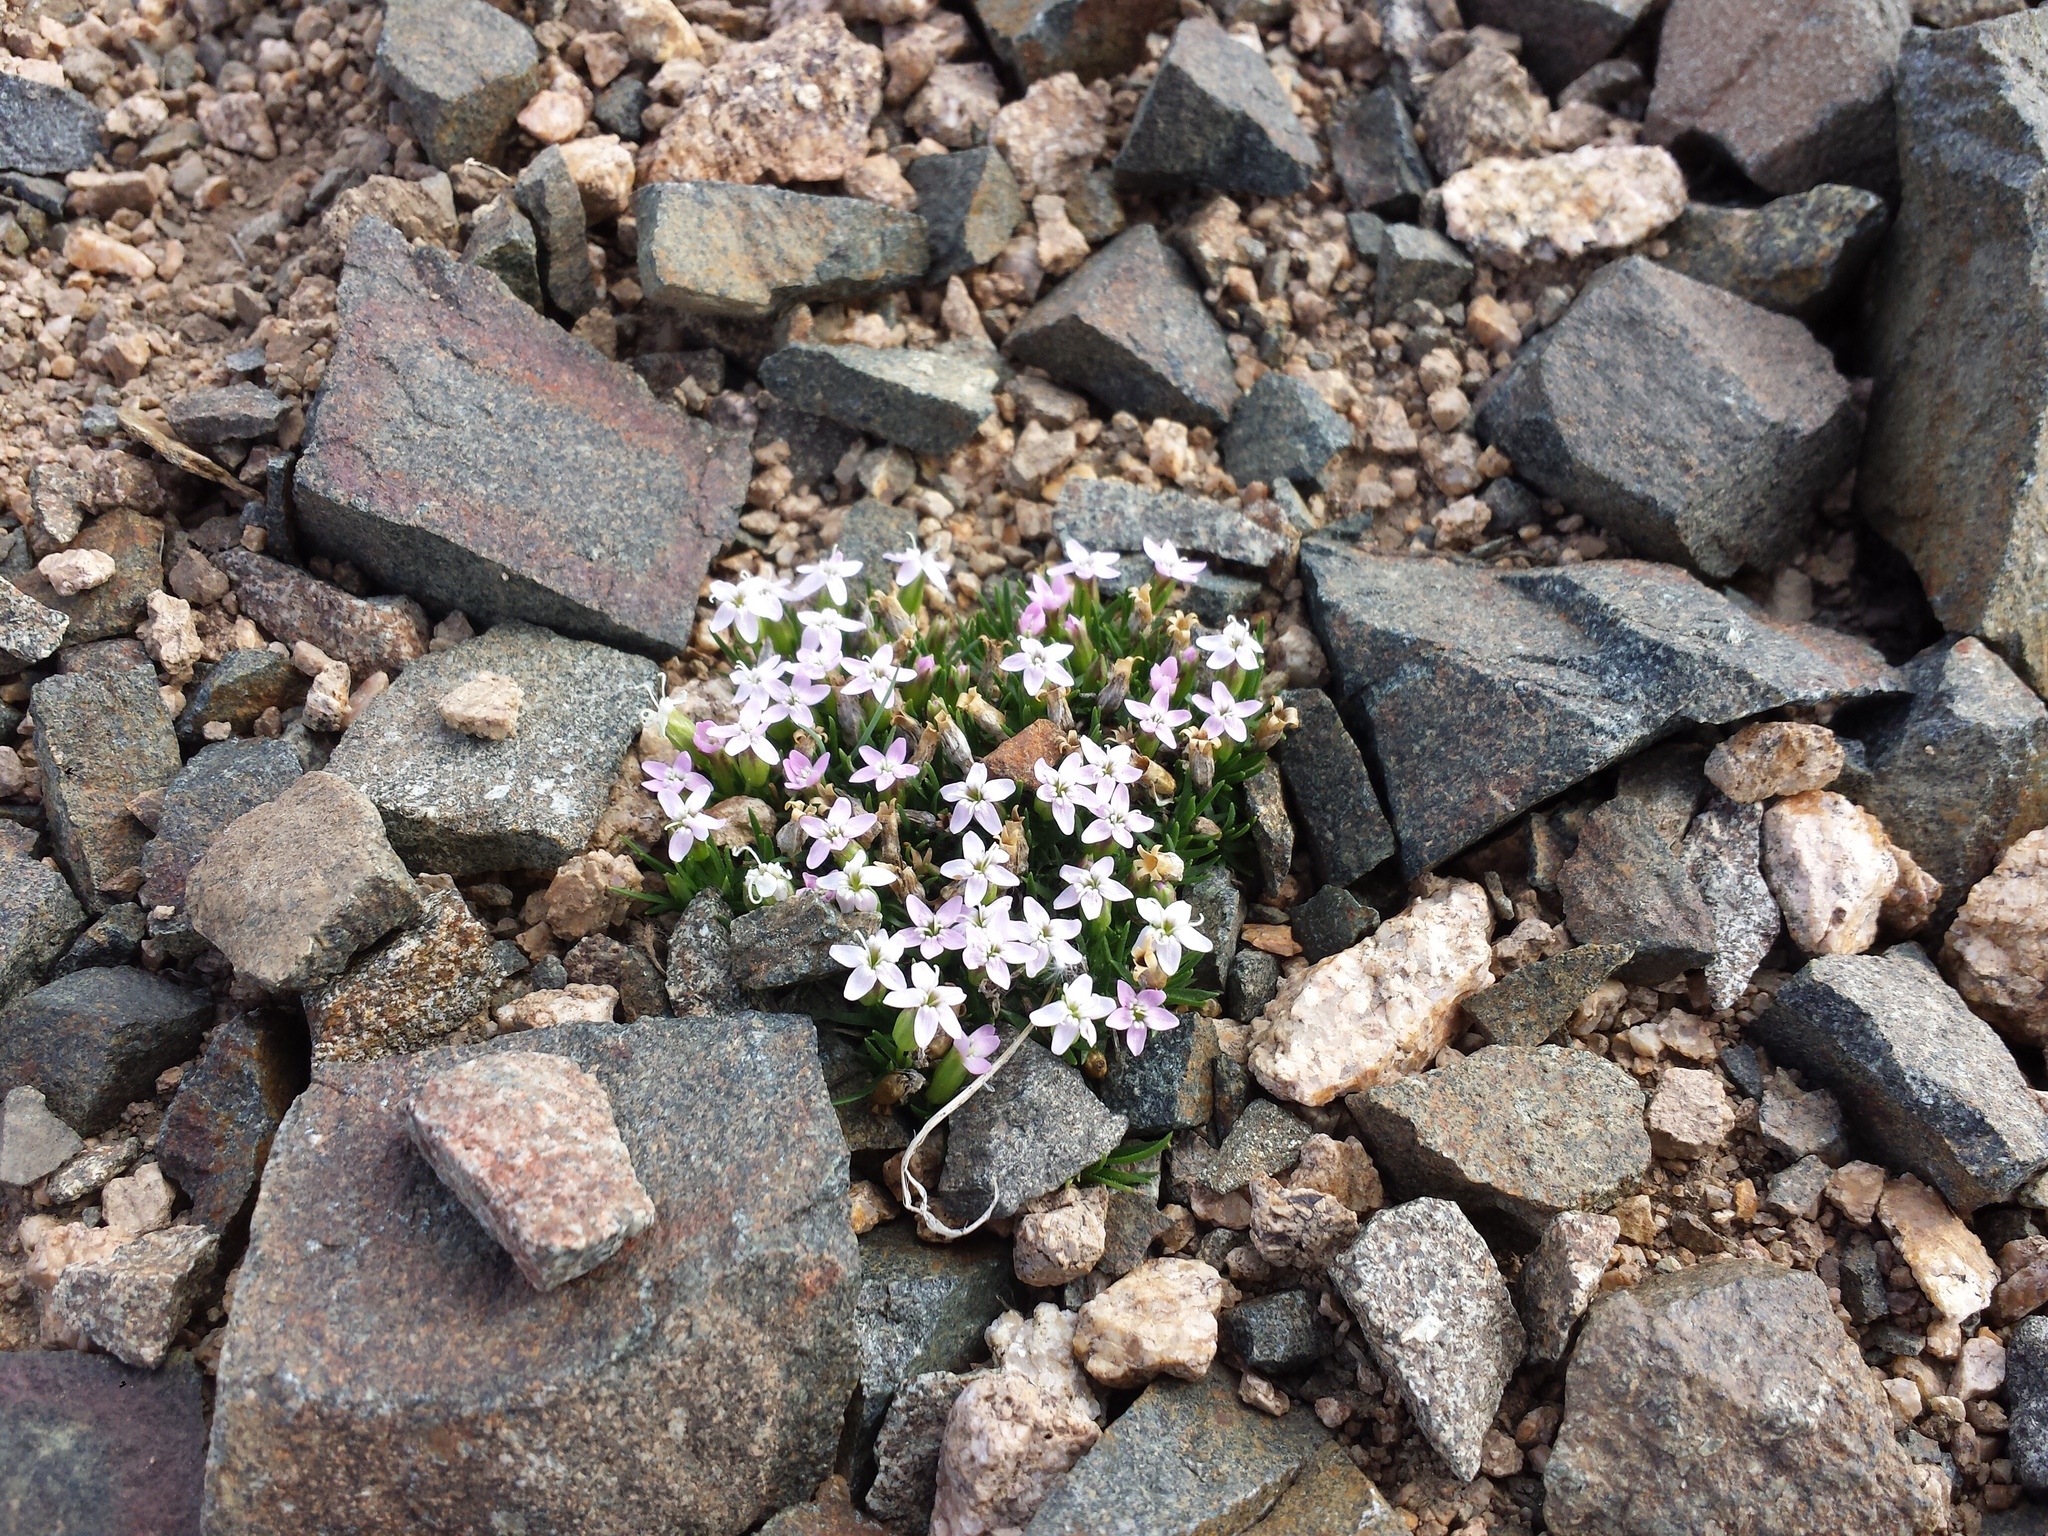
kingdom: Plantae
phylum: Tracheophyta
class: Magnoliopsida
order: Caryophyllales
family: Caryophyllaceae
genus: Silene
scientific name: Silene acaulis
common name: Moss campion
